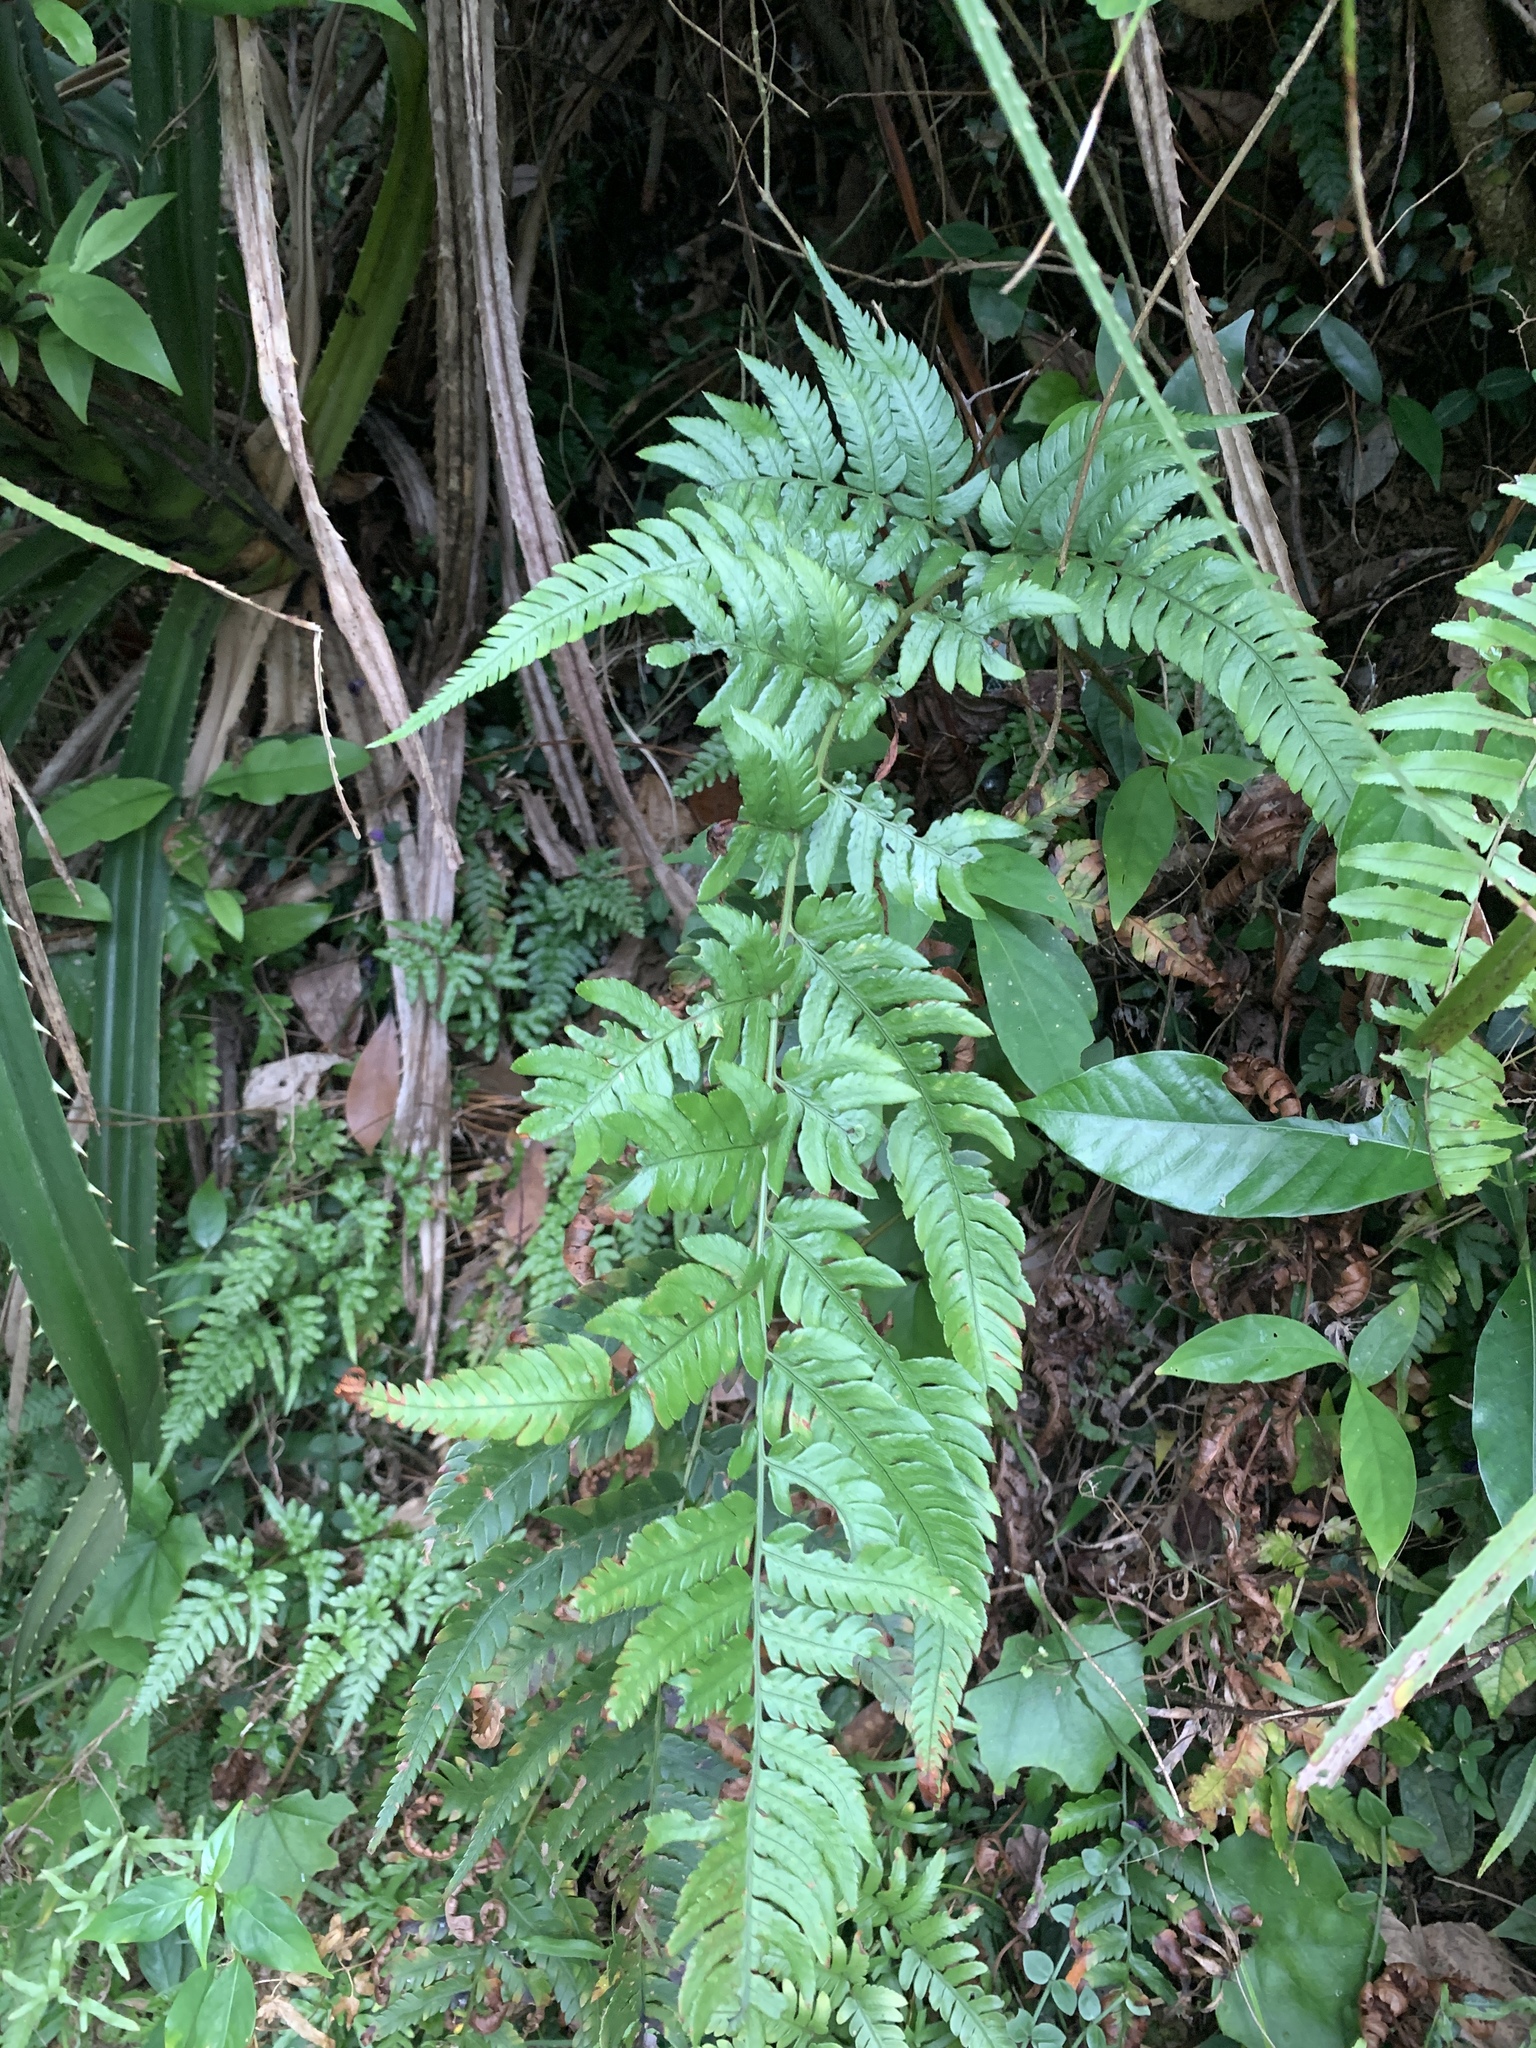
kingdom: Plantae
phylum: Tracheophyta
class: Polypodiopsida
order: Polypodiales
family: Dryopteridaceae
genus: Dryopteris
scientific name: Dryopteris varia
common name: Japanese holly fern
